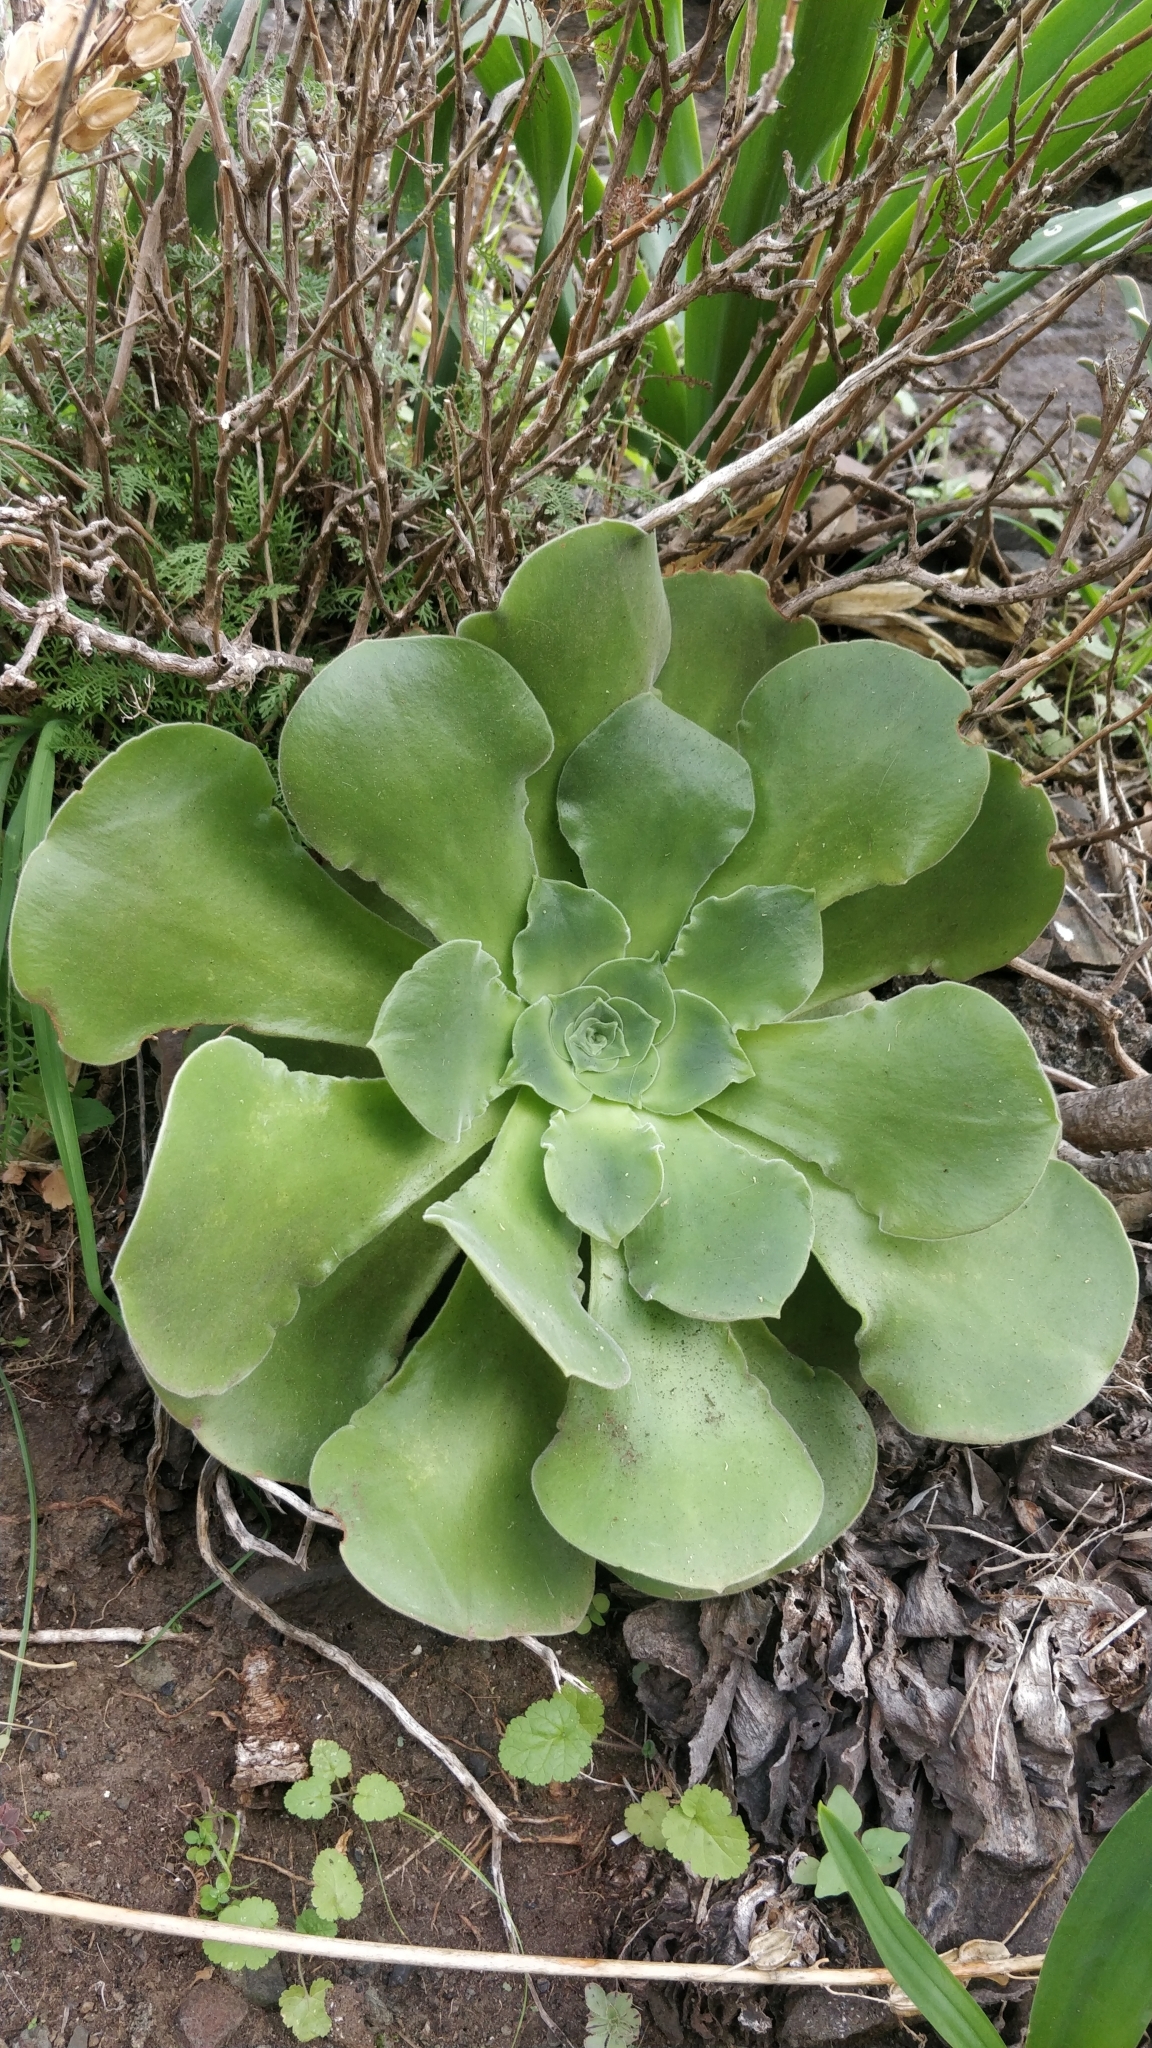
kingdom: Plantae
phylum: Tracheophyta
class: Magnoliopsida
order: Saxifragales
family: Crassulaceae
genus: Aeonium
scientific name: Aeonium canariense
